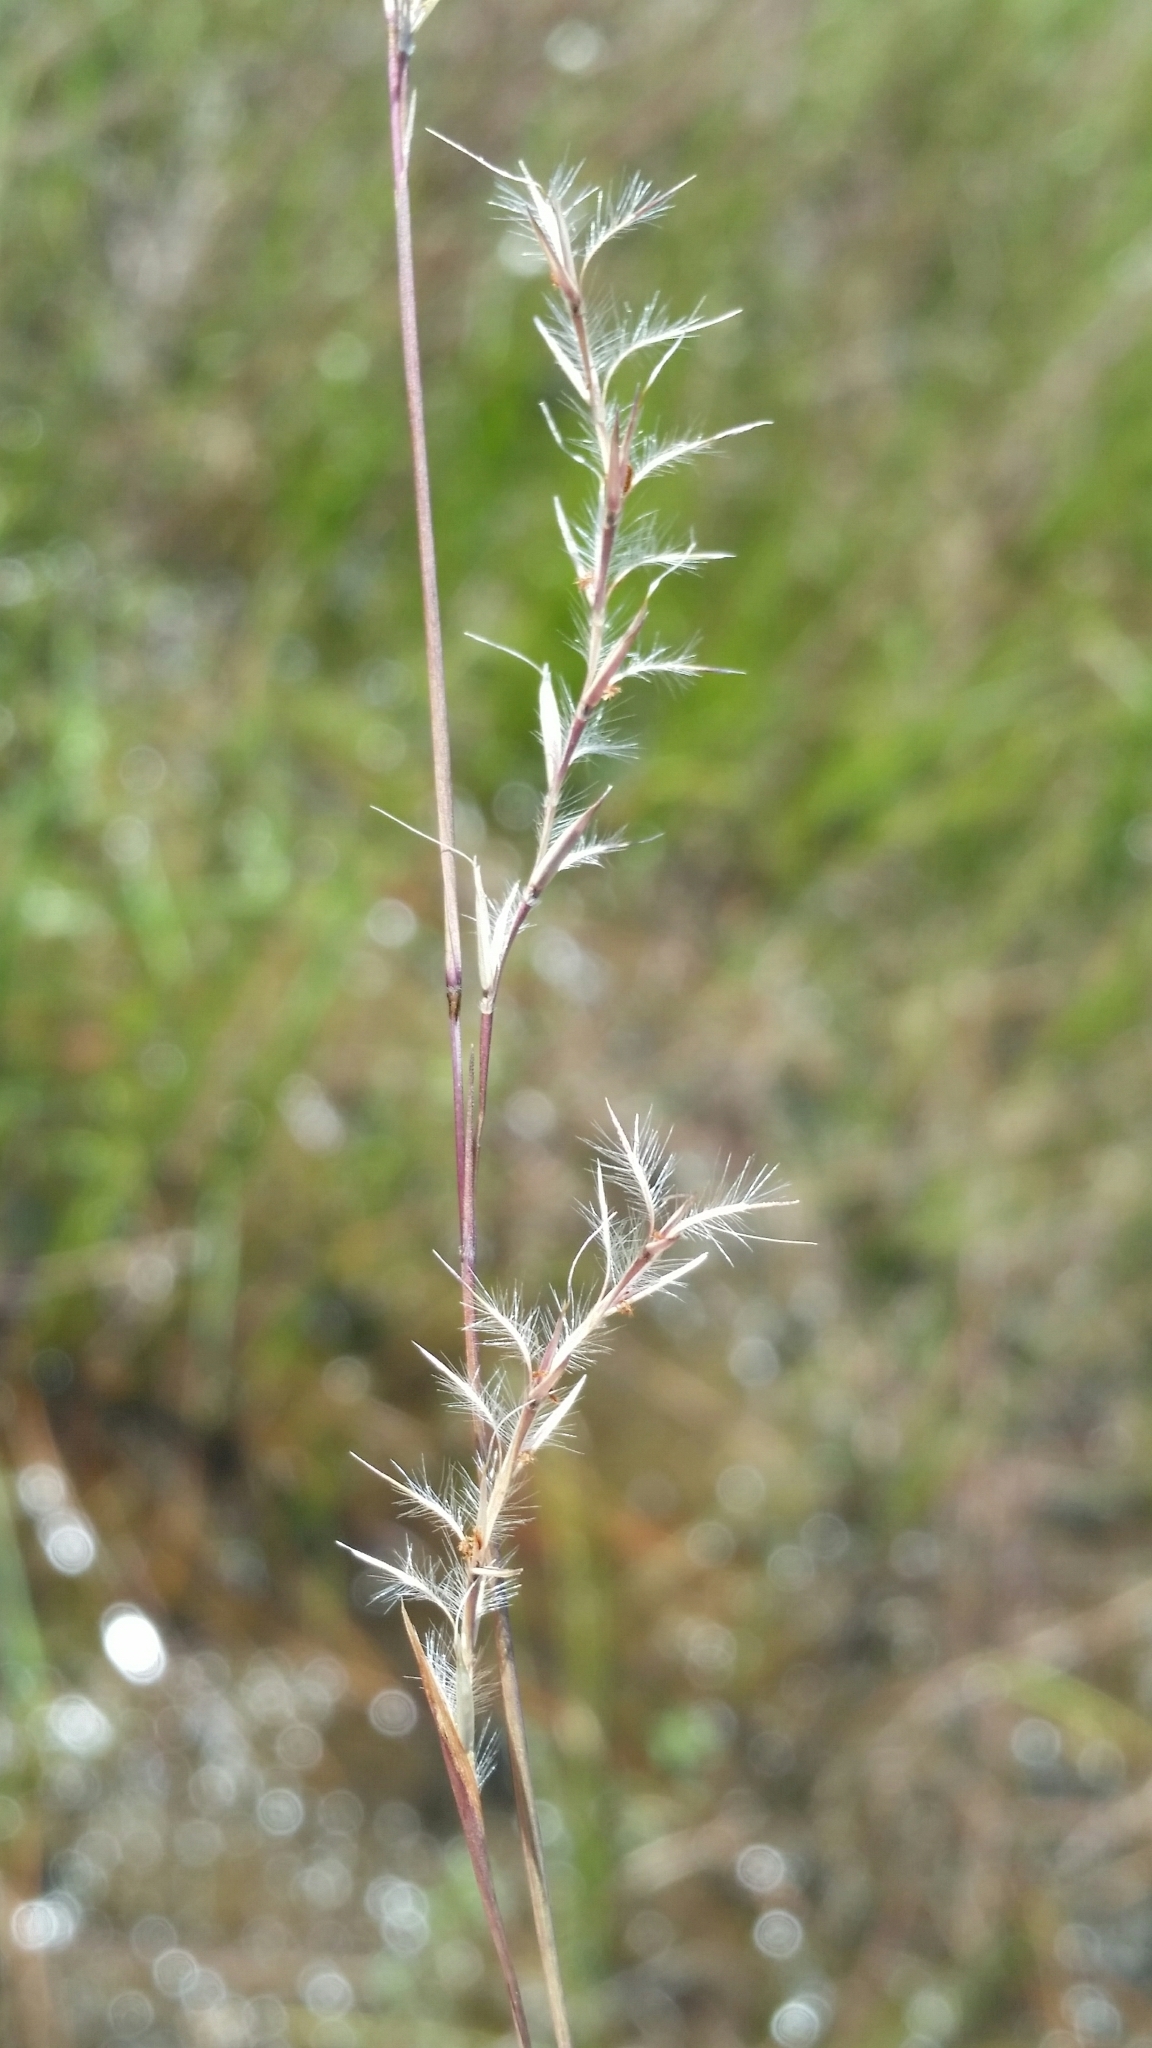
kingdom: Plantae
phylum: Tracheophyta
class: Liliopsida
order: Poales
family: Poaceae
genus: Schizachyrium
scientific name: Schizachyrium rhizomatum
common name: Florida little bluestem
